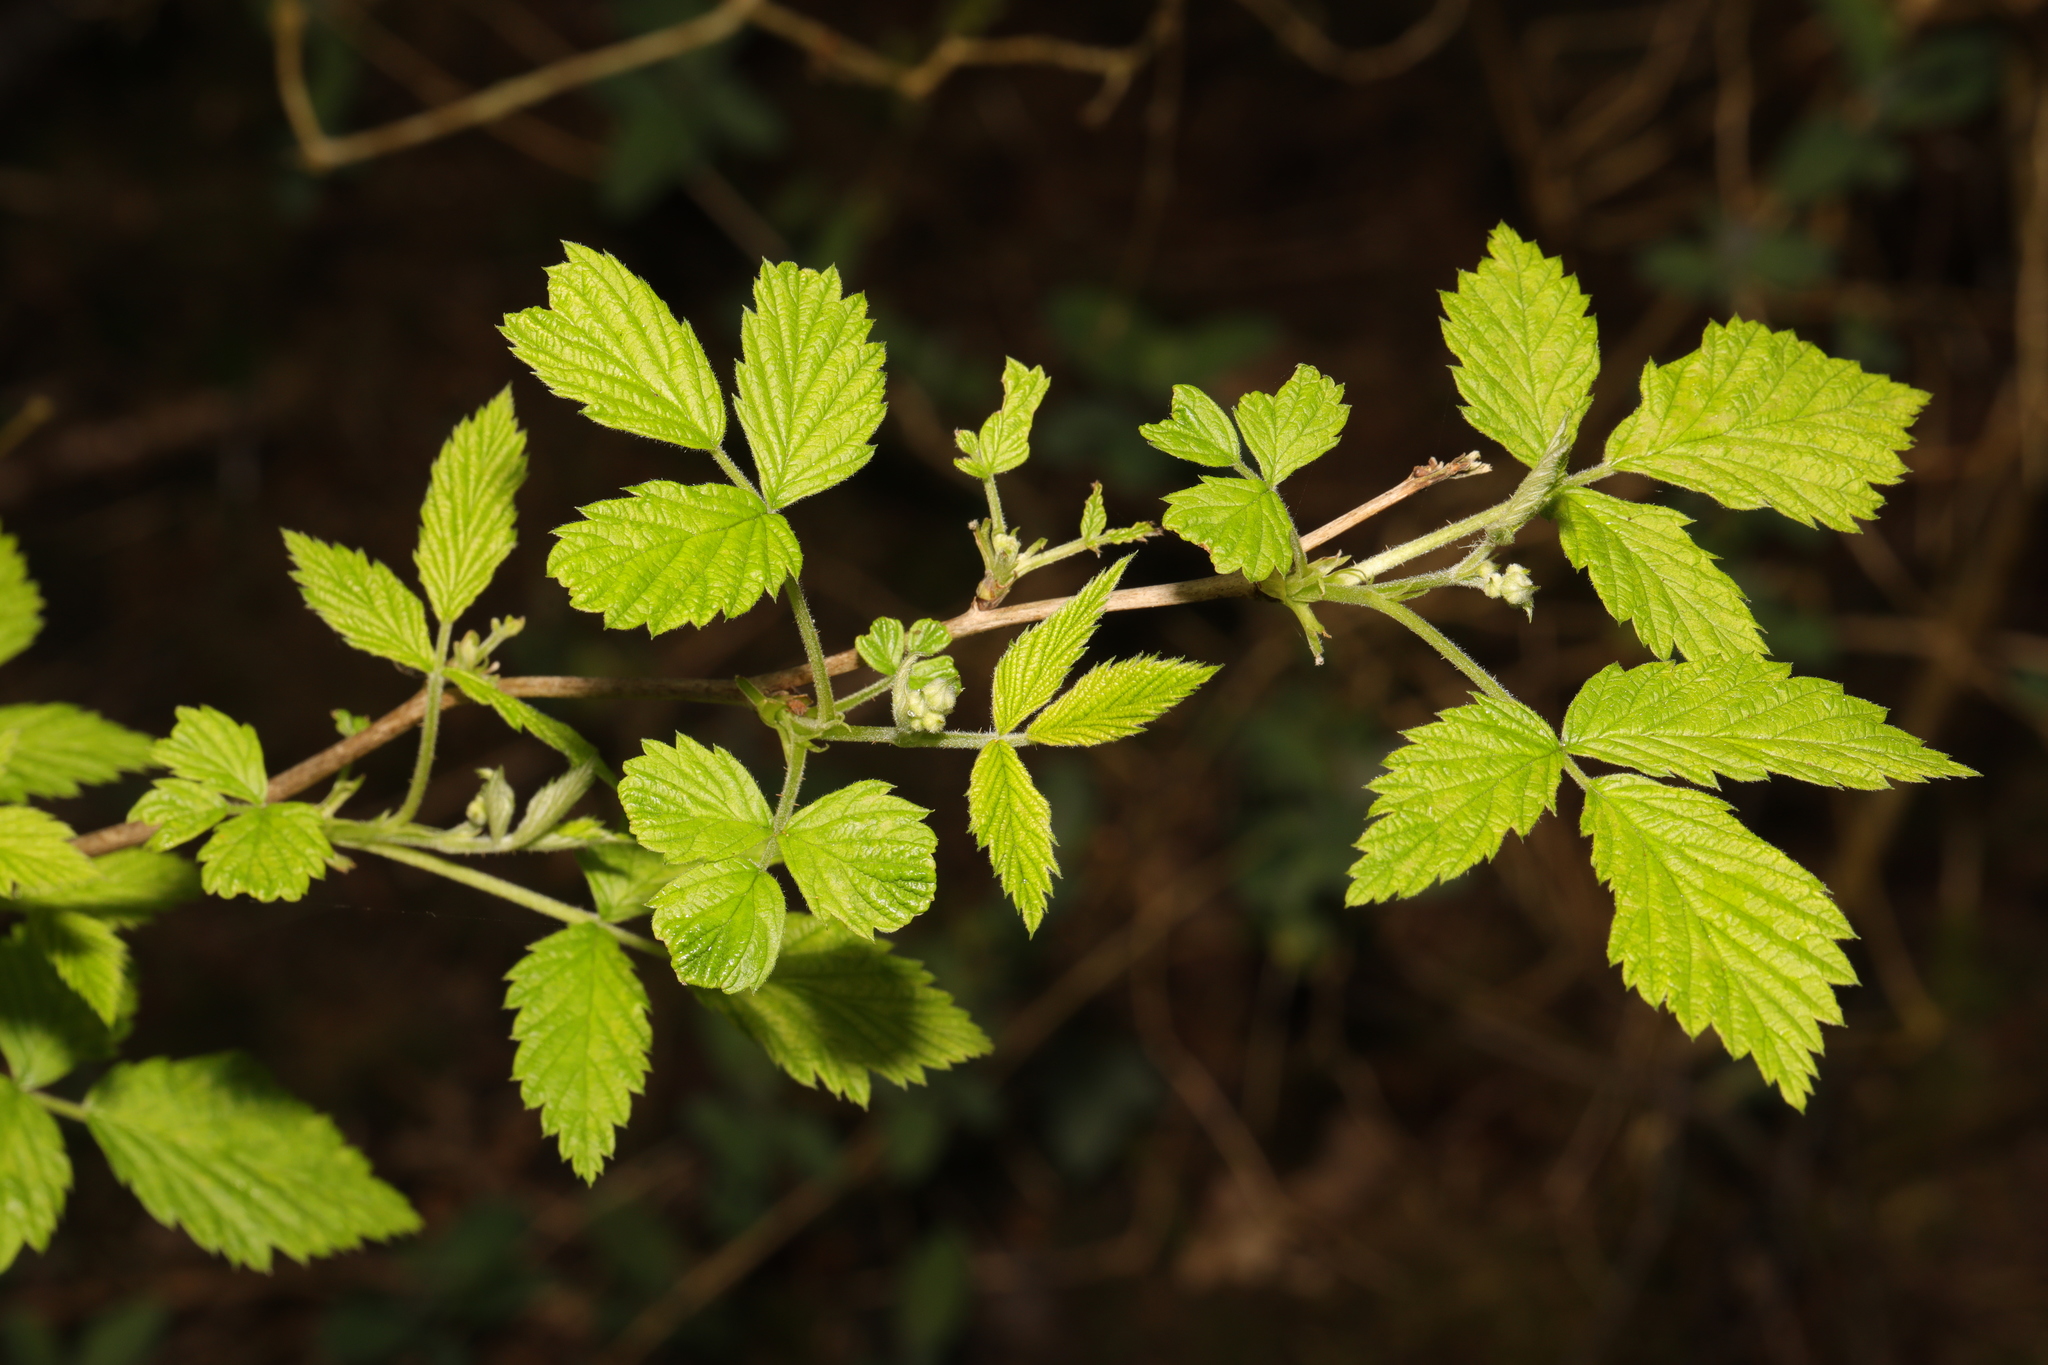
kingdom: Plantae
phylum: Tracheophyta
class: Magnoliopsida
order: Rosales
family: Rosaceae
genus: Rubus
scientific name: Rubus idaeus
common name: Raspberry
